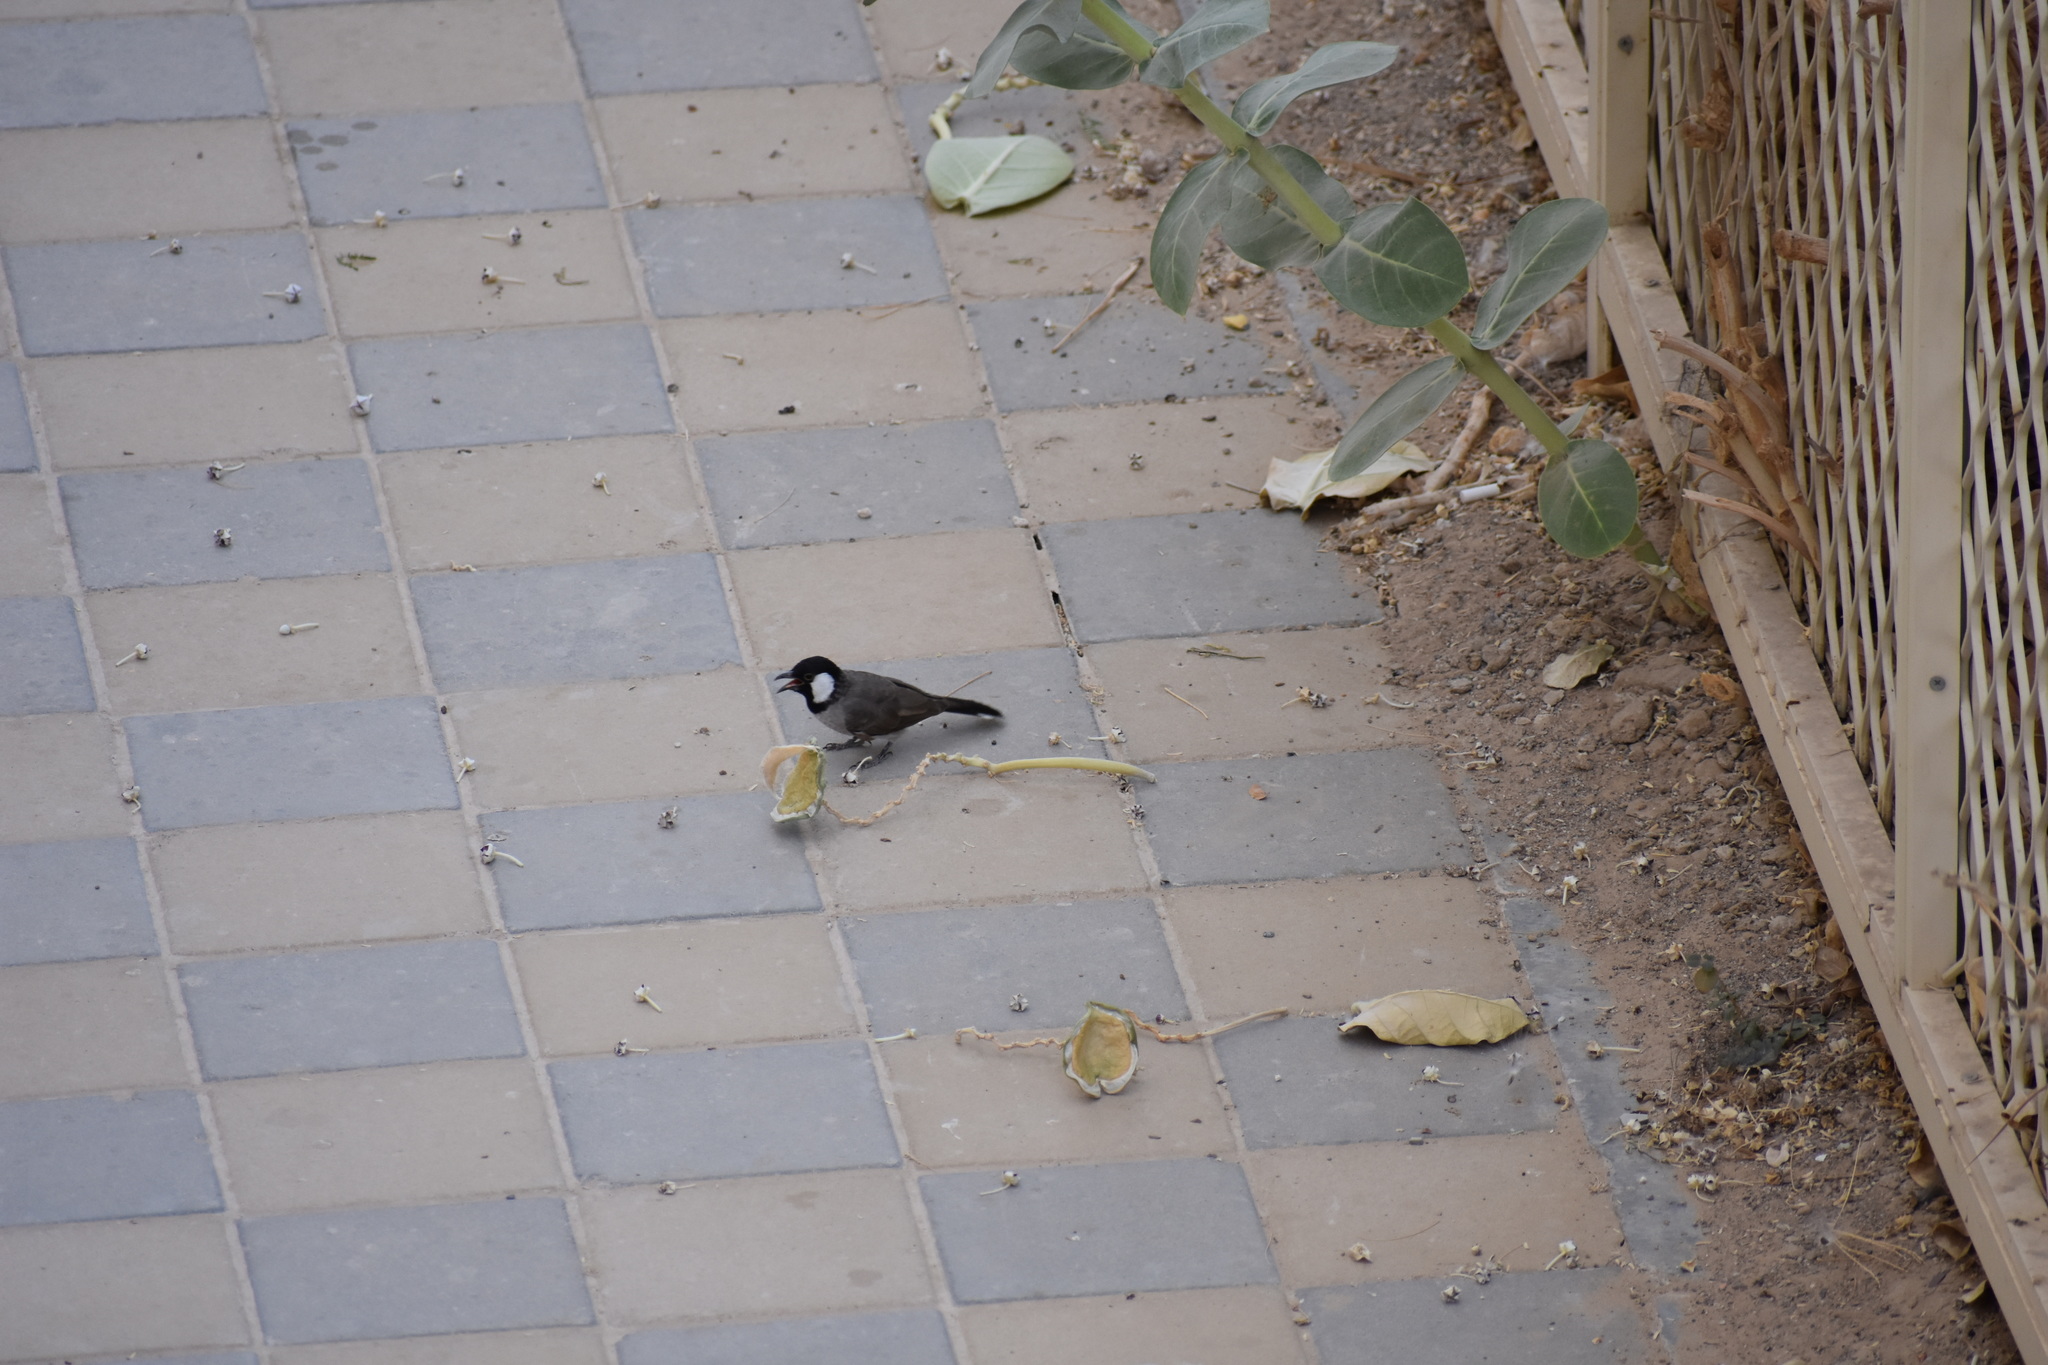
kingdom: Animalia
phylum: Chordata
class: Aves
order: Passeriformes
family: Pycnonotidae
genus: Pycnonotus
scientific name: Pycnonotus leucotis
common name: White-eared bulbul
